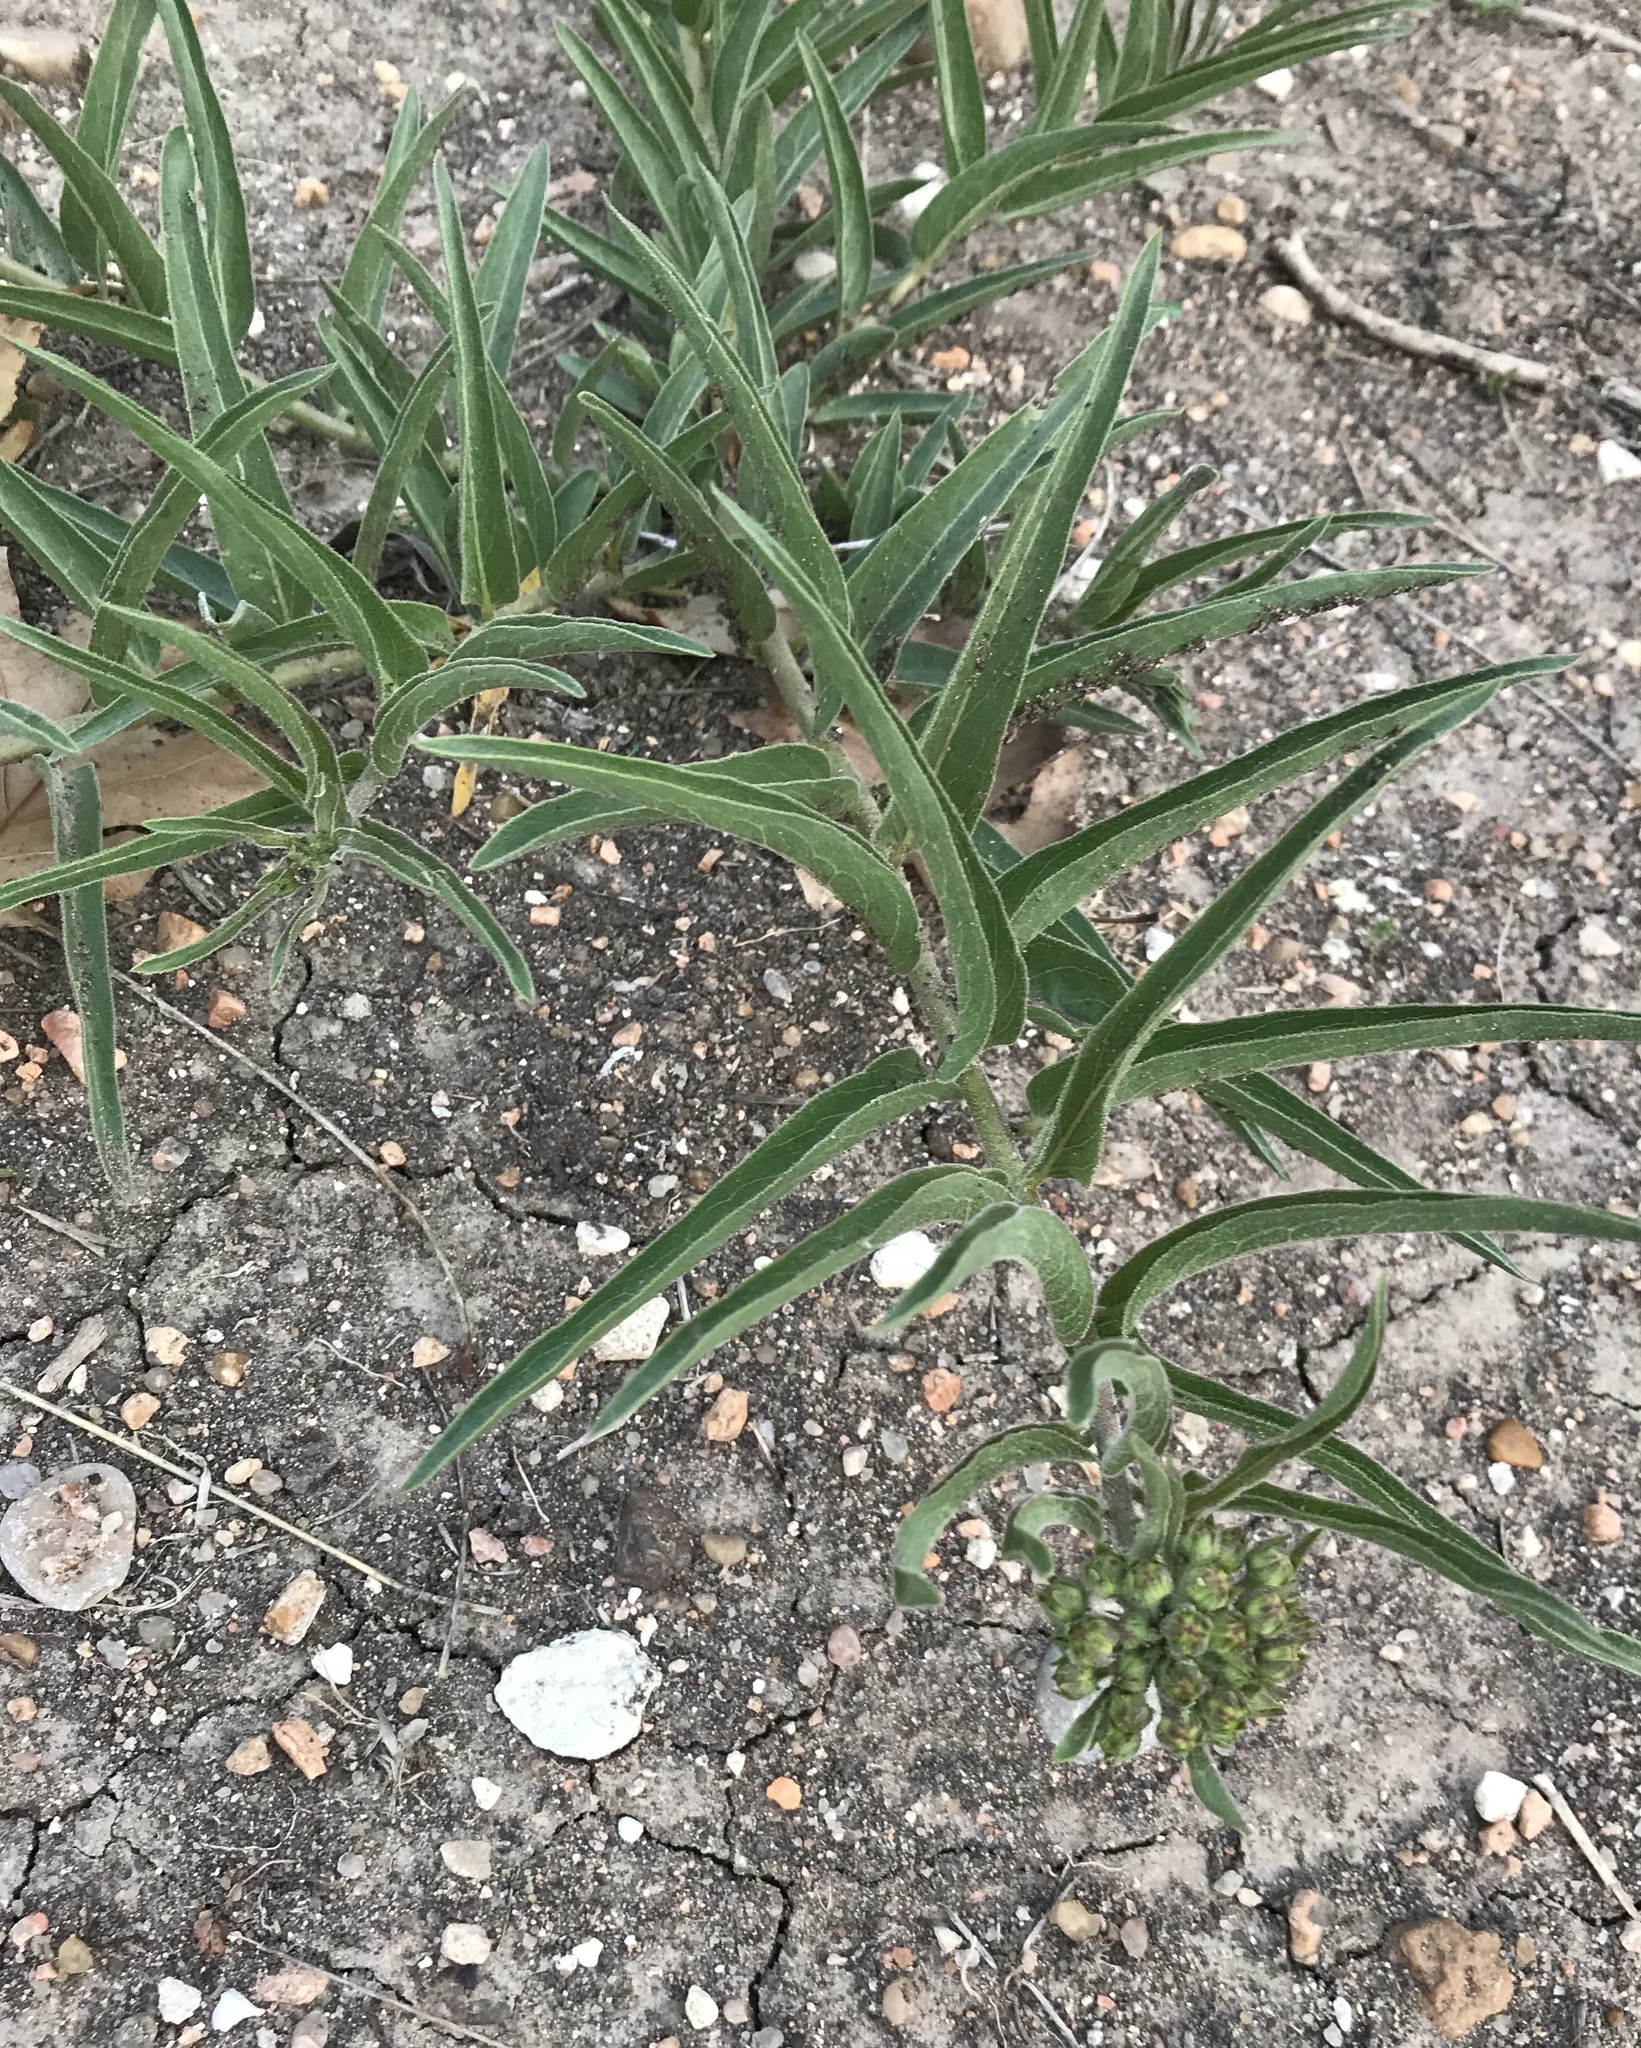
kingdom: Plantae
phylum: Tracheophyta
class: Magnoliopsida
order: Gentianales
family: Apocynaceae
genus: Asclepias
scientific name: Asclepias asperula
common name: Antelope horns
